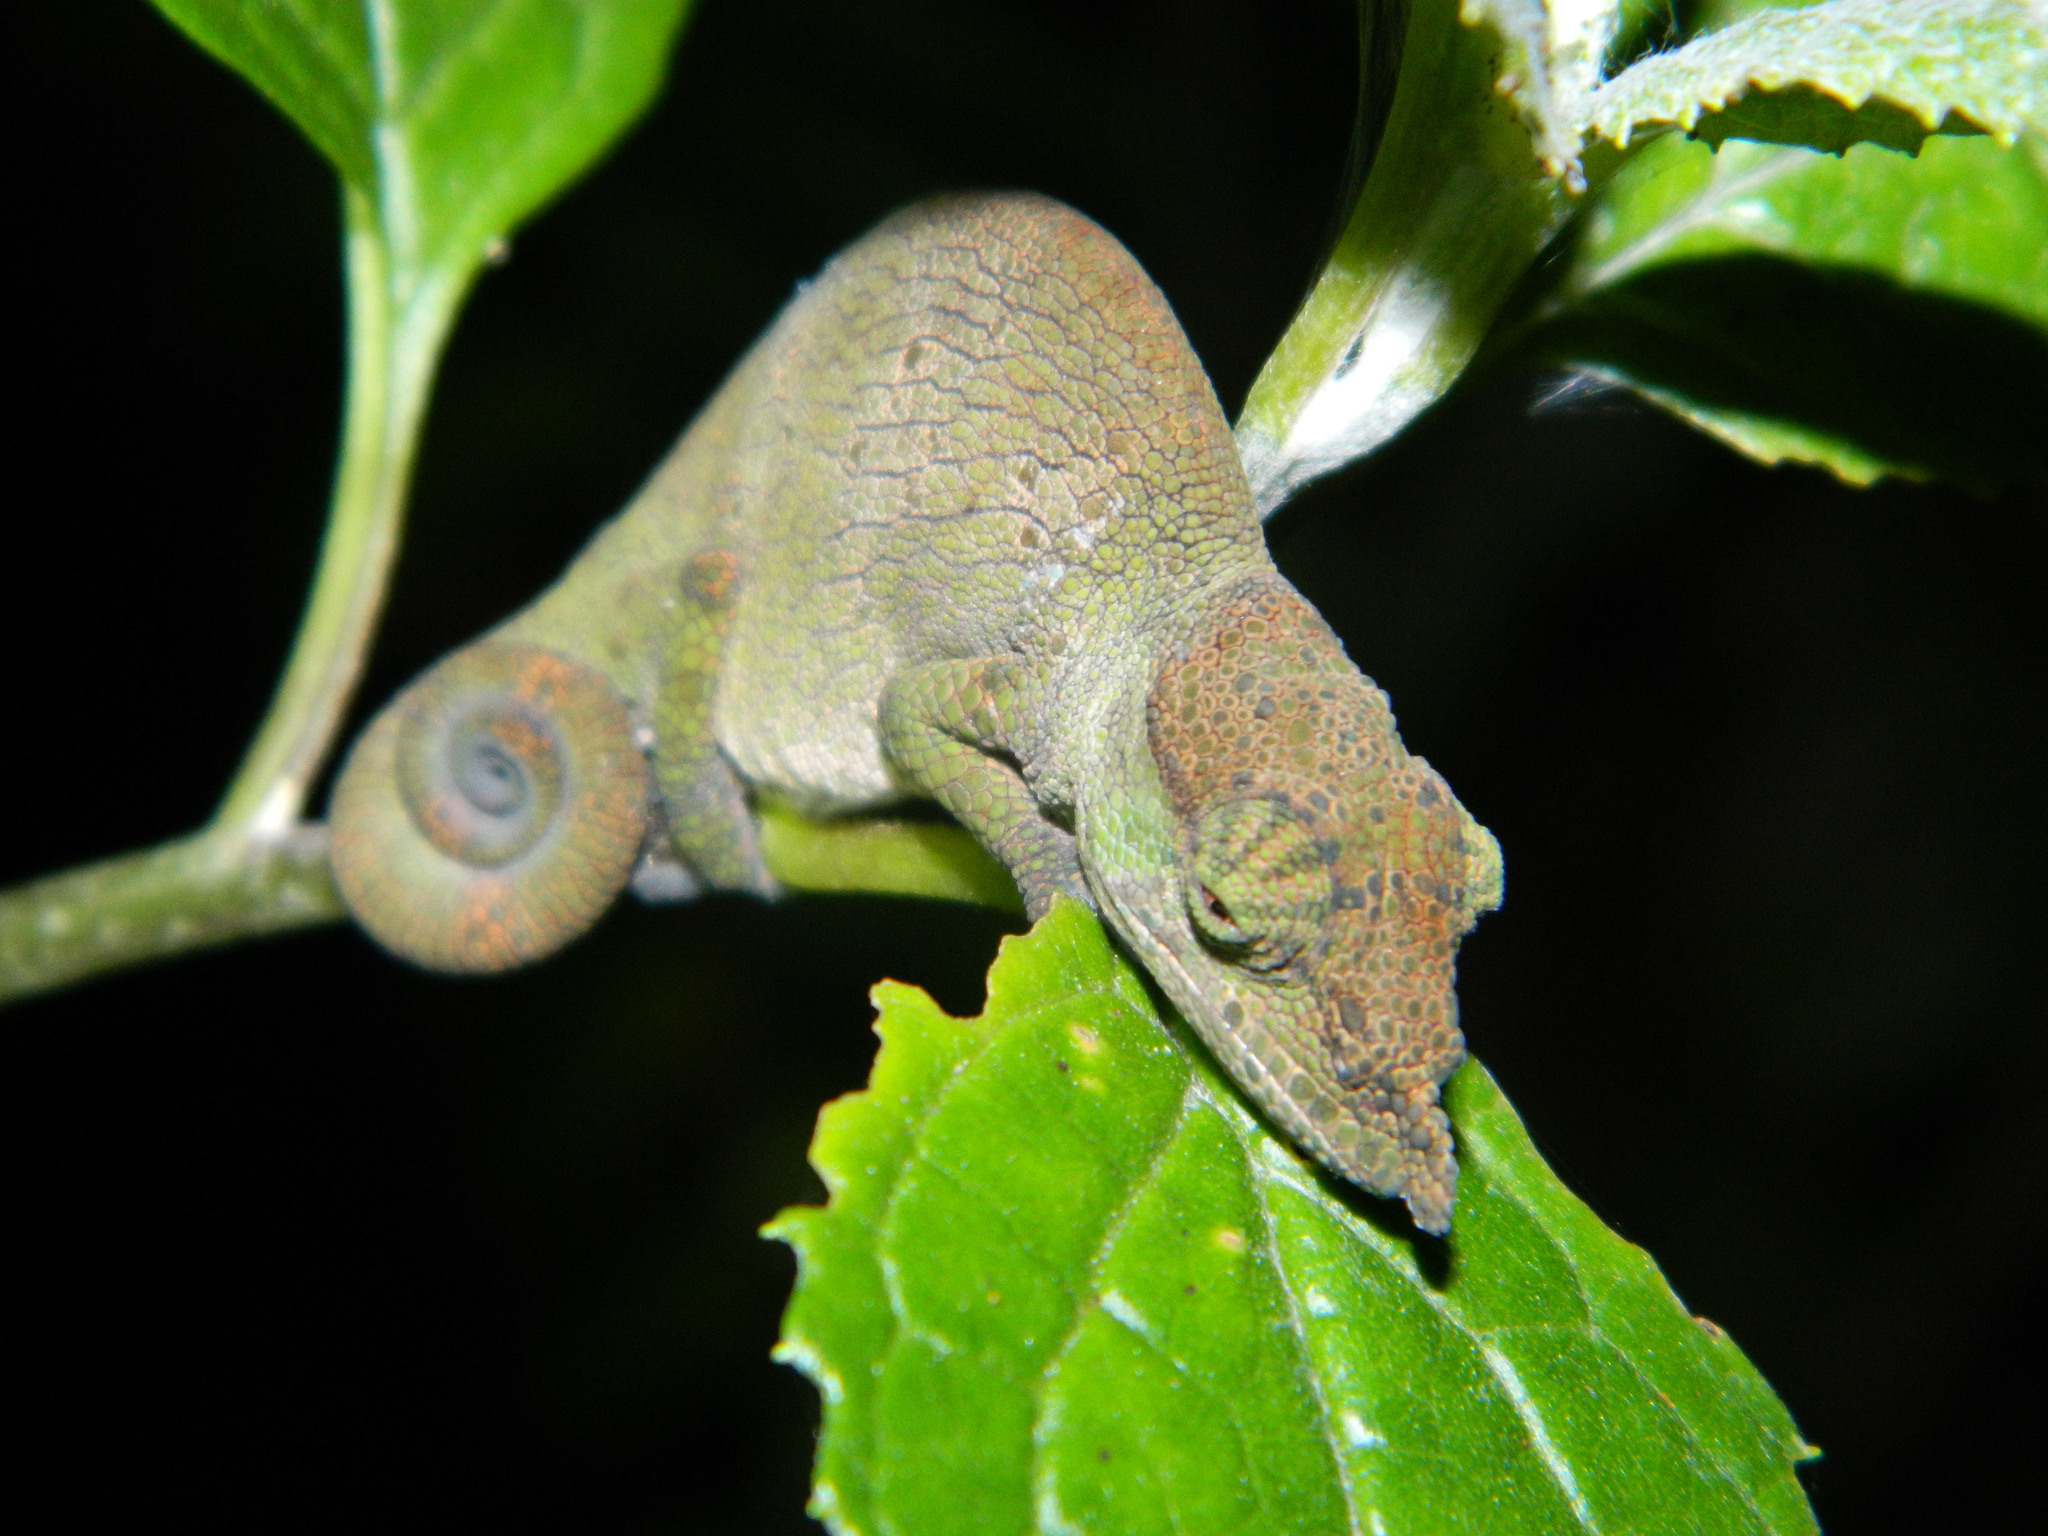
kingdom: Animalia
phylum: Chordata
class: Squamata
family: Chamaeleonidae
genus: Calumma
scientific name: Calumma tjiasmantoi
